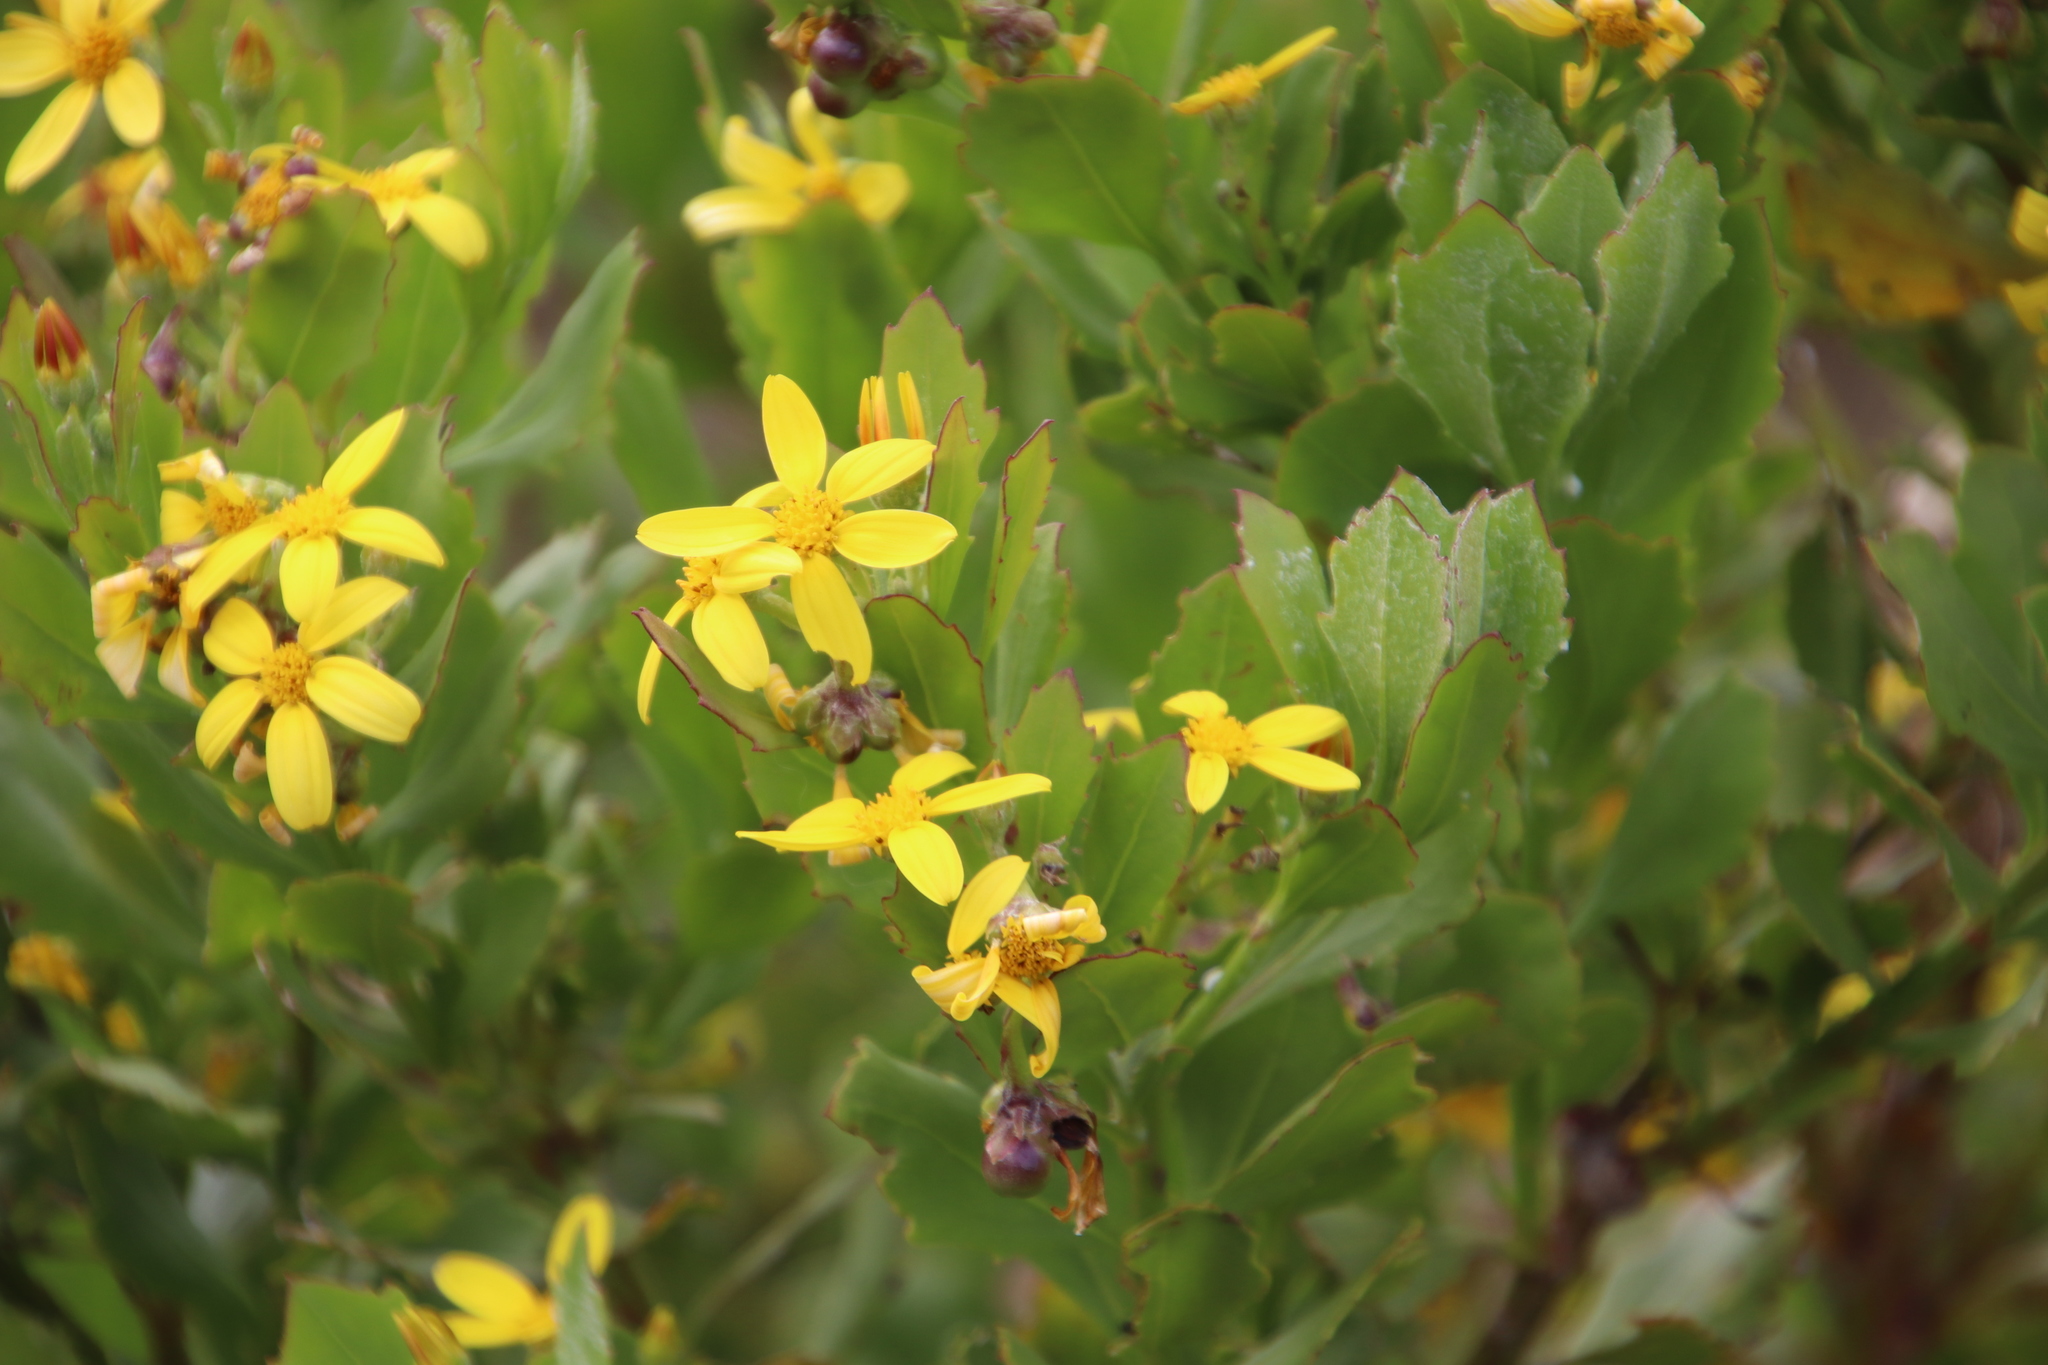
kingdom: Plantae
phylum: Tracheophyta
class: Magnoliopsida
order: Asterales
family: Asteraceae
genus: Osteospermum
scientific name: Osteospermum moniliferum
